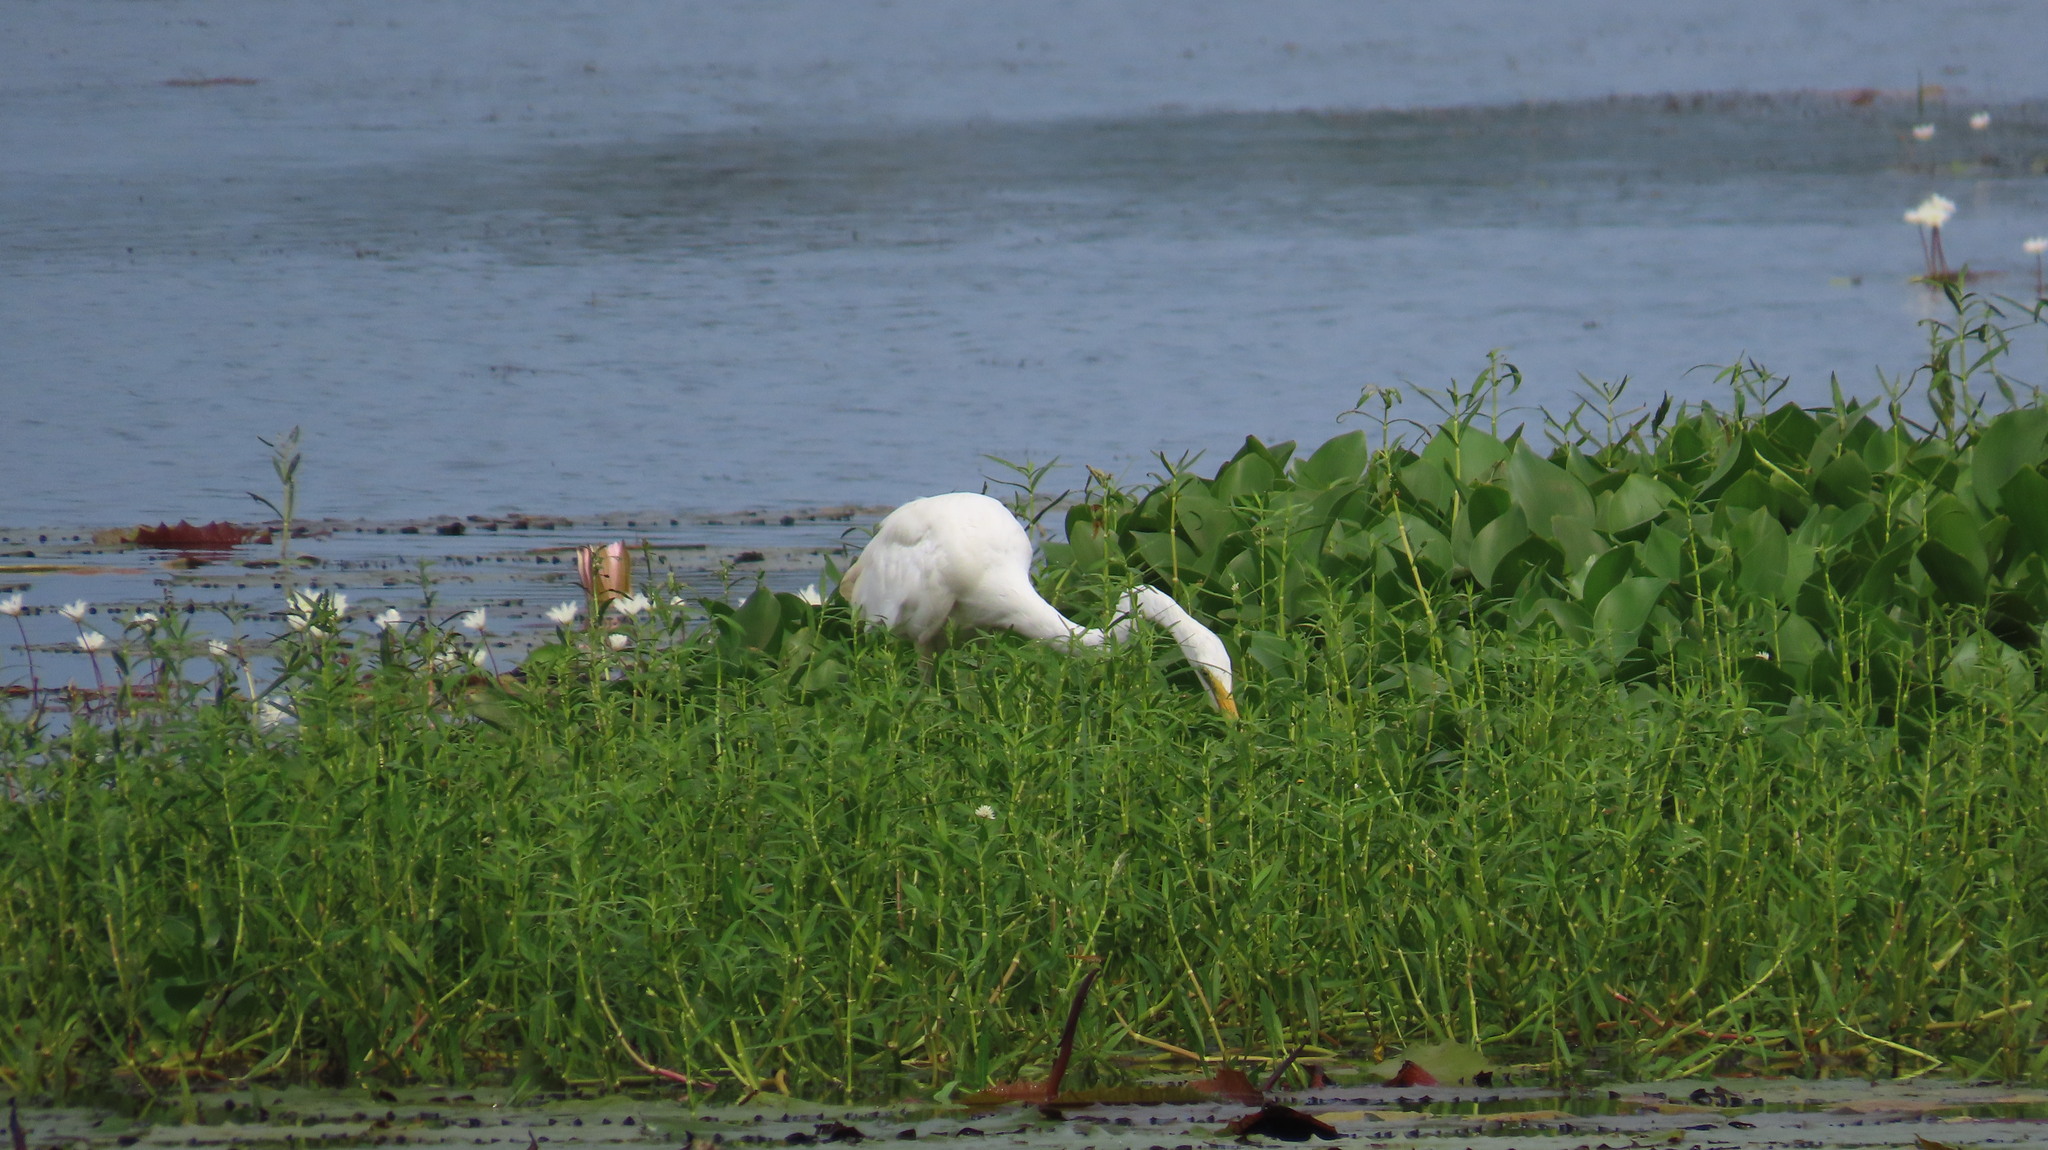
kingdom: Animalia
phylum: Chordata
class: Aves
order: Pelecaniformes
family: Ardeidae
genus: Ardea
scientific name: Ardea alba
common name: Great egret
